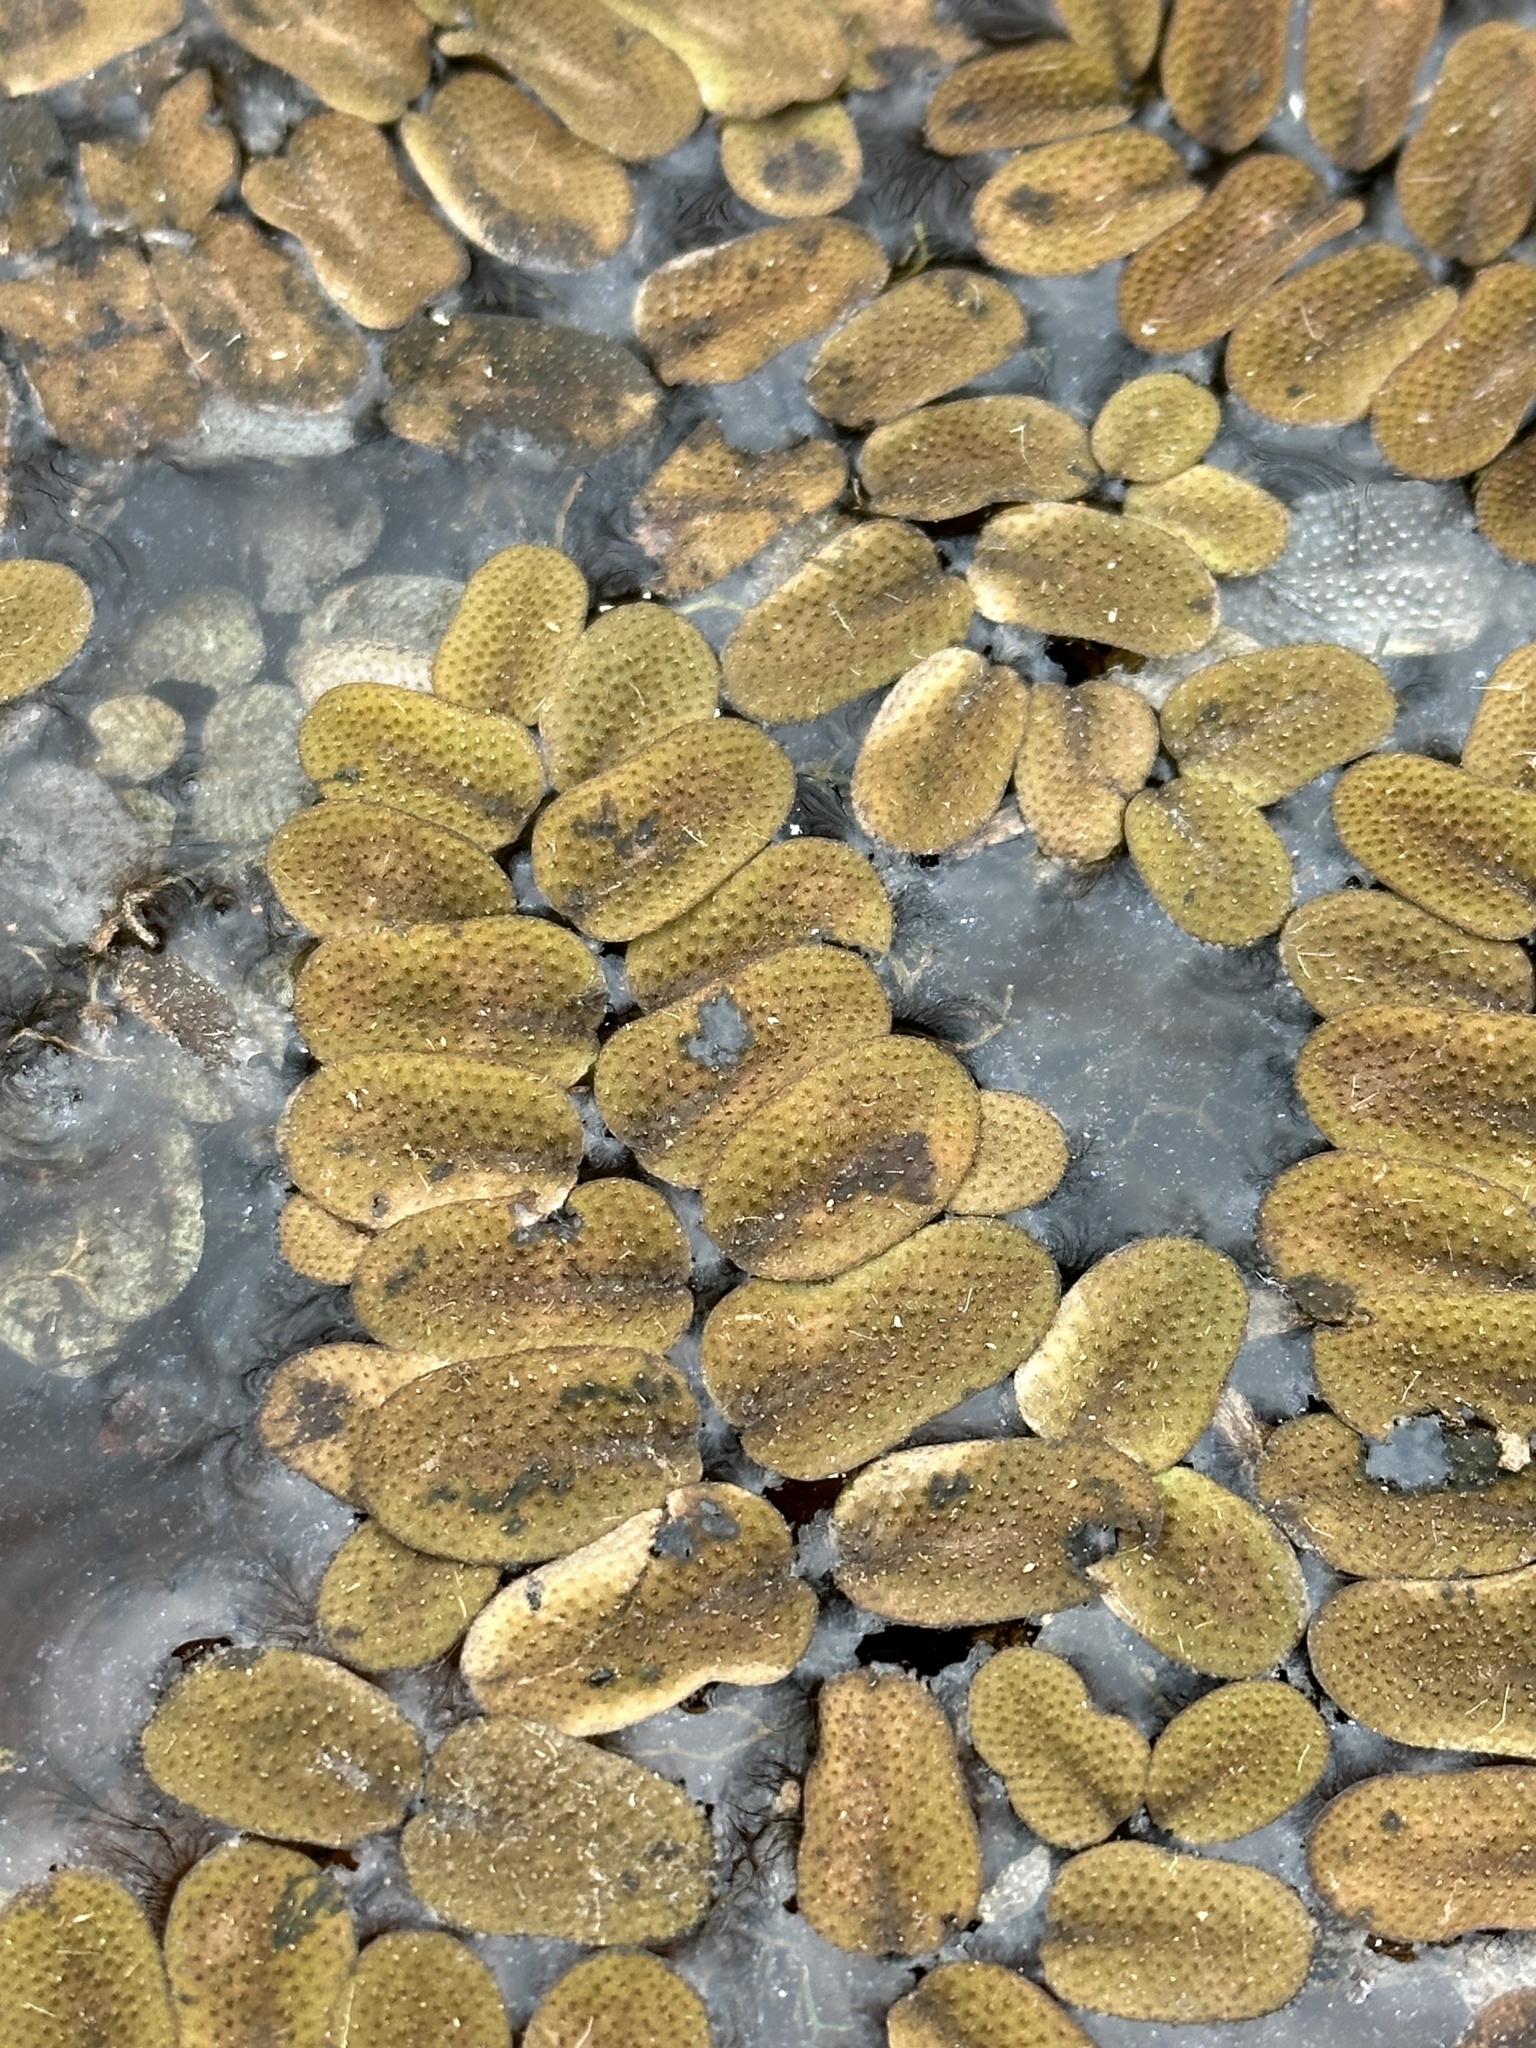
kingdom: Plantae
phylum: Tracheophyta
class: Polypodiopsida
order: Salviniales
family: Salviniaceae
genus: Salvinia
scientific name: Salvinia natans
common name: Floating fern
